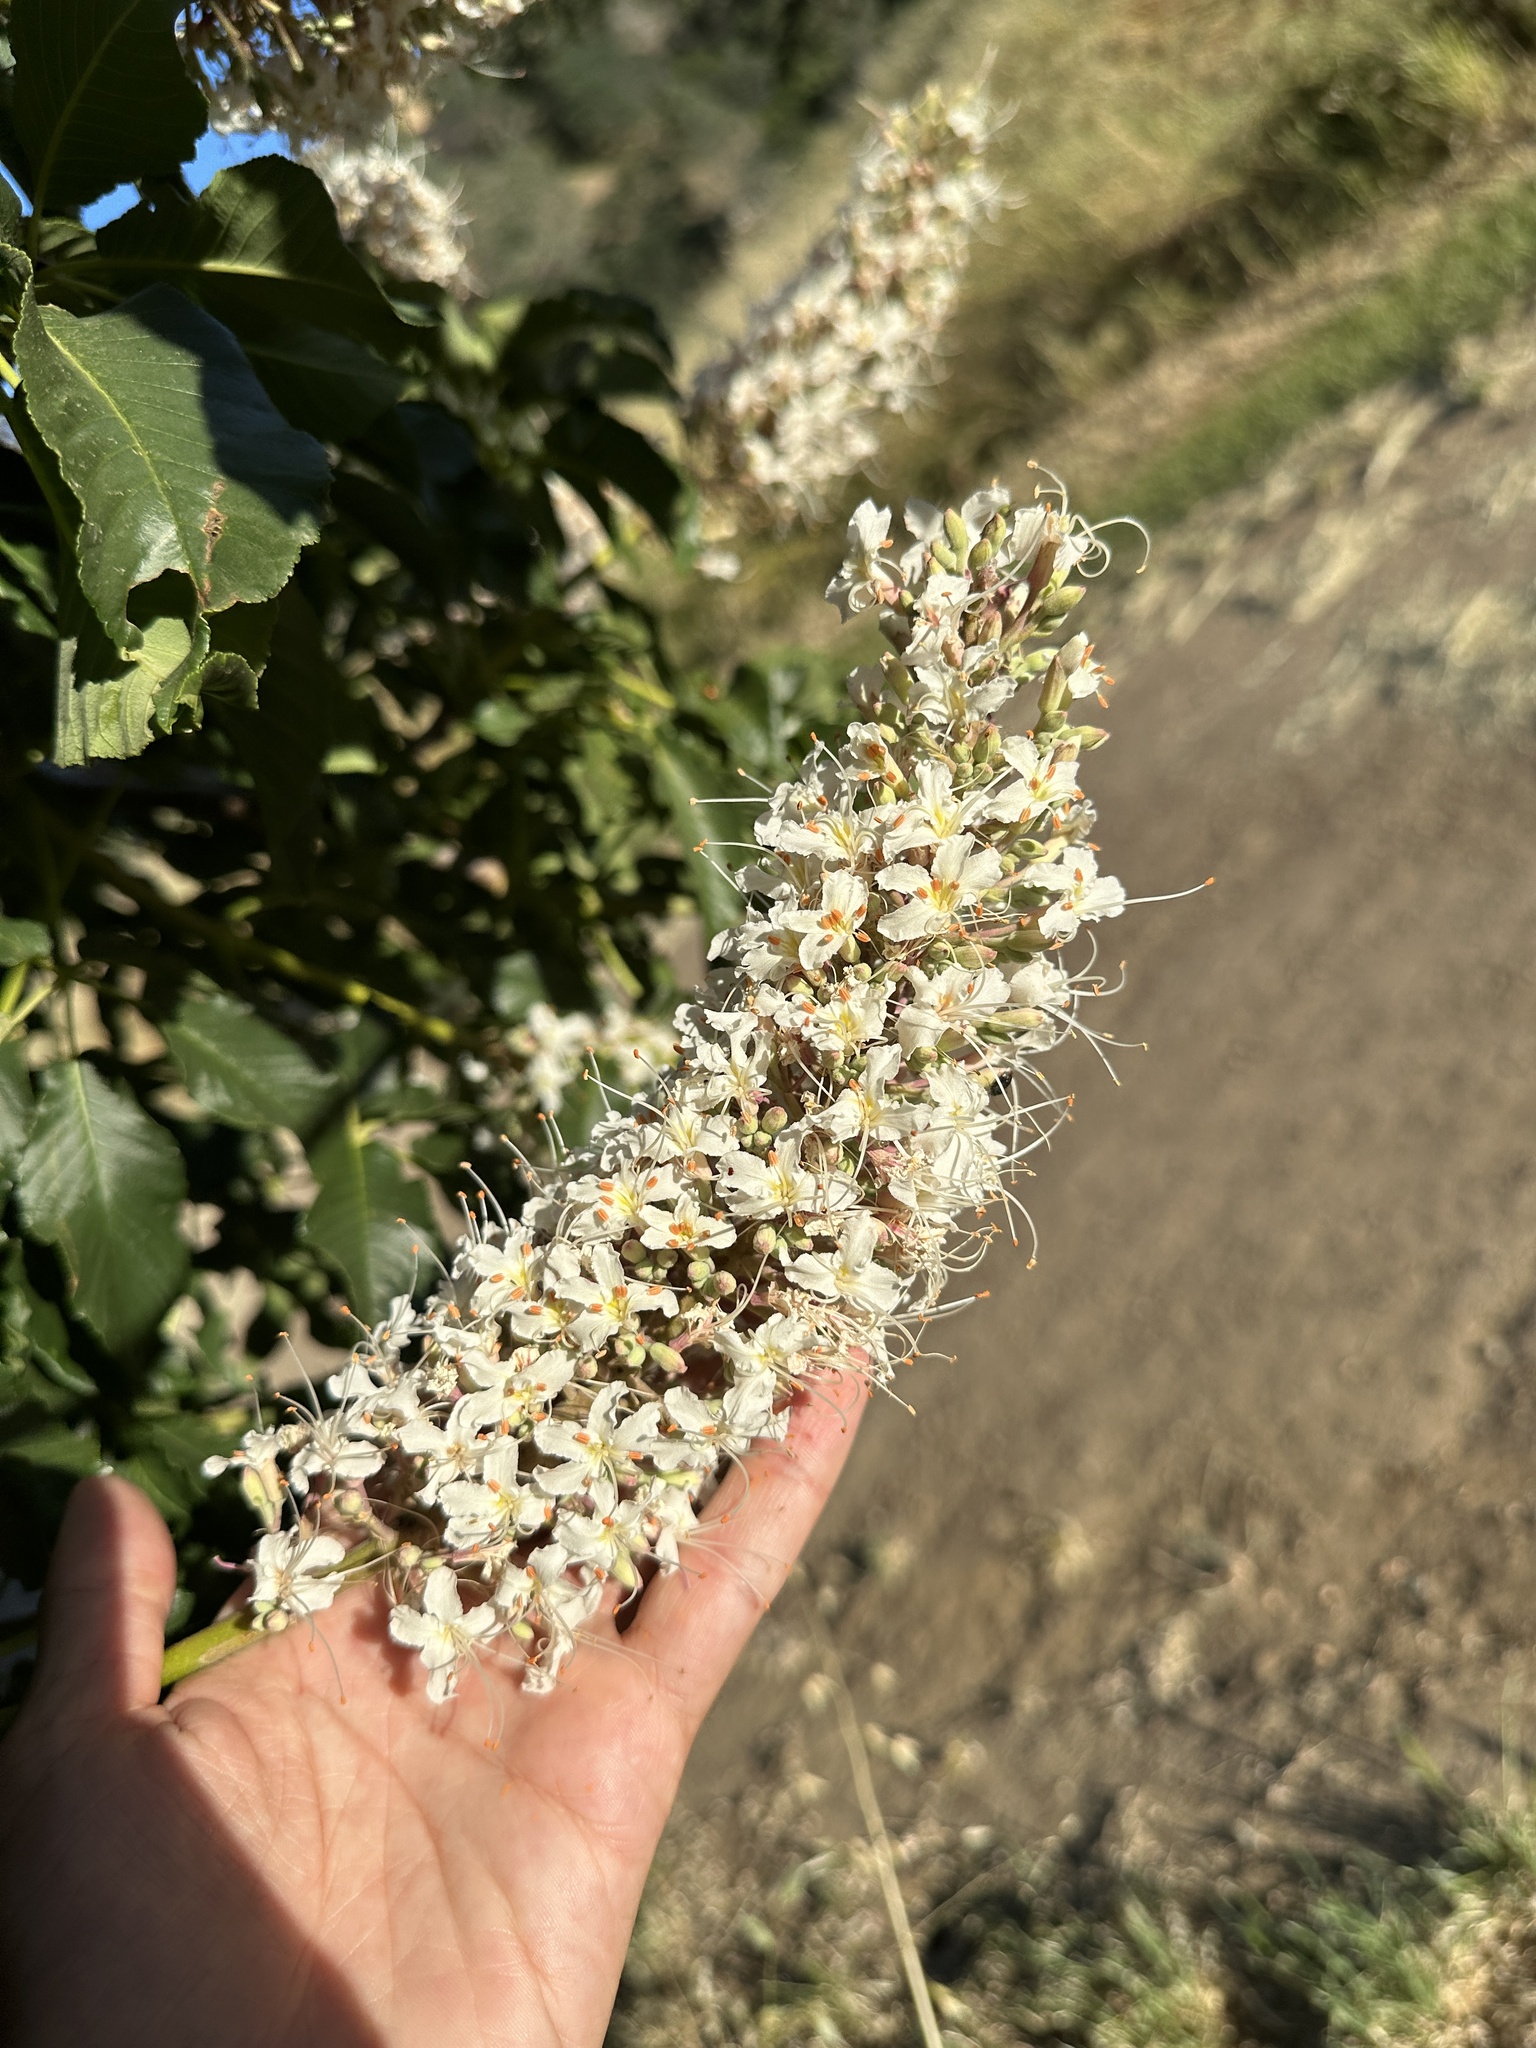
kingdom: Plantae
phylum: Tracheophyta
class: Magnoliopsida
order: Sapindales
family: Sapindaceae
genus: Aesculus
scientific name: Aesculus californica
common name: California buckeye
